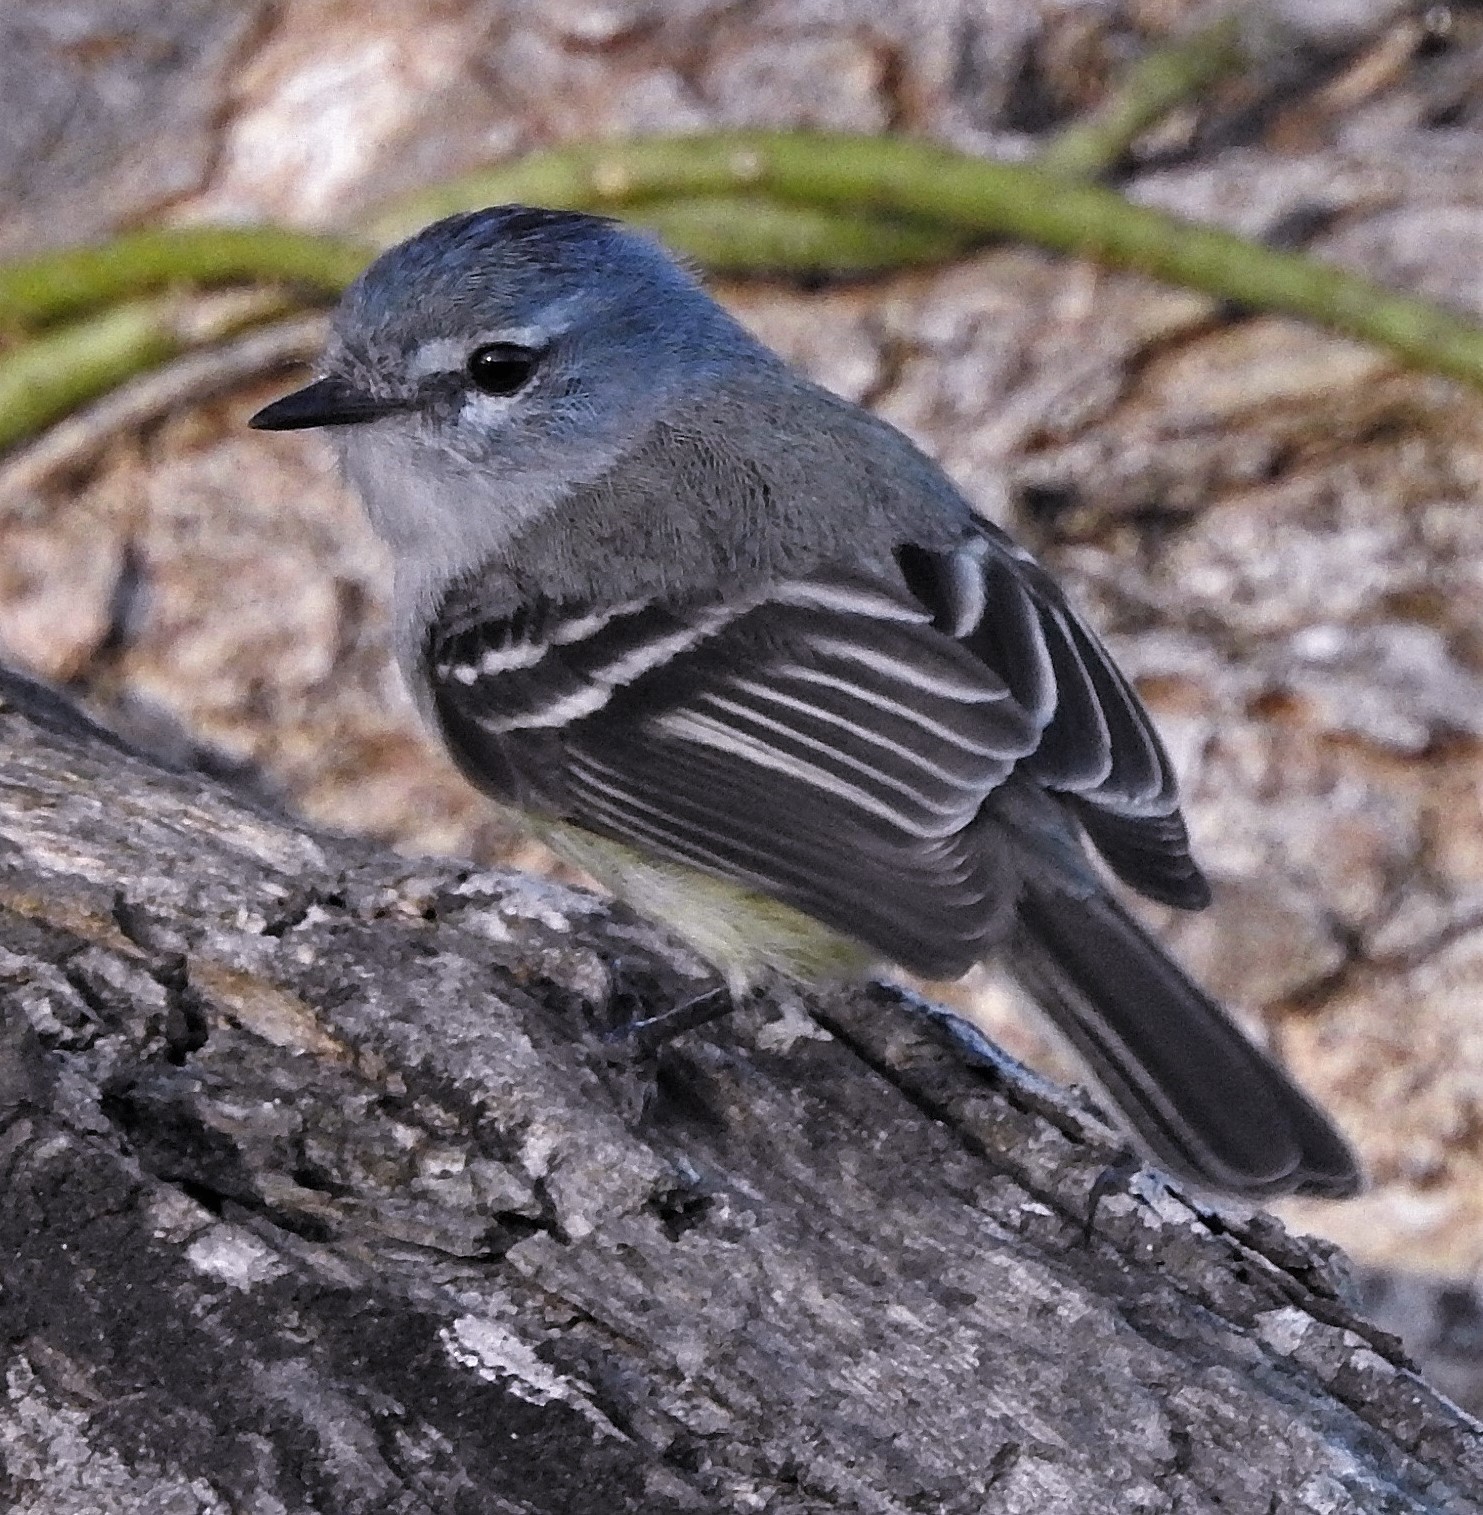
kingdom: Animalia
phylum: Chordata
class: Aves
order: Passeriformes
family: Tyrannidae
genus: Serpophaga
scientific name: Serpophaga subcristata
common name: White-crested tyrannulet
